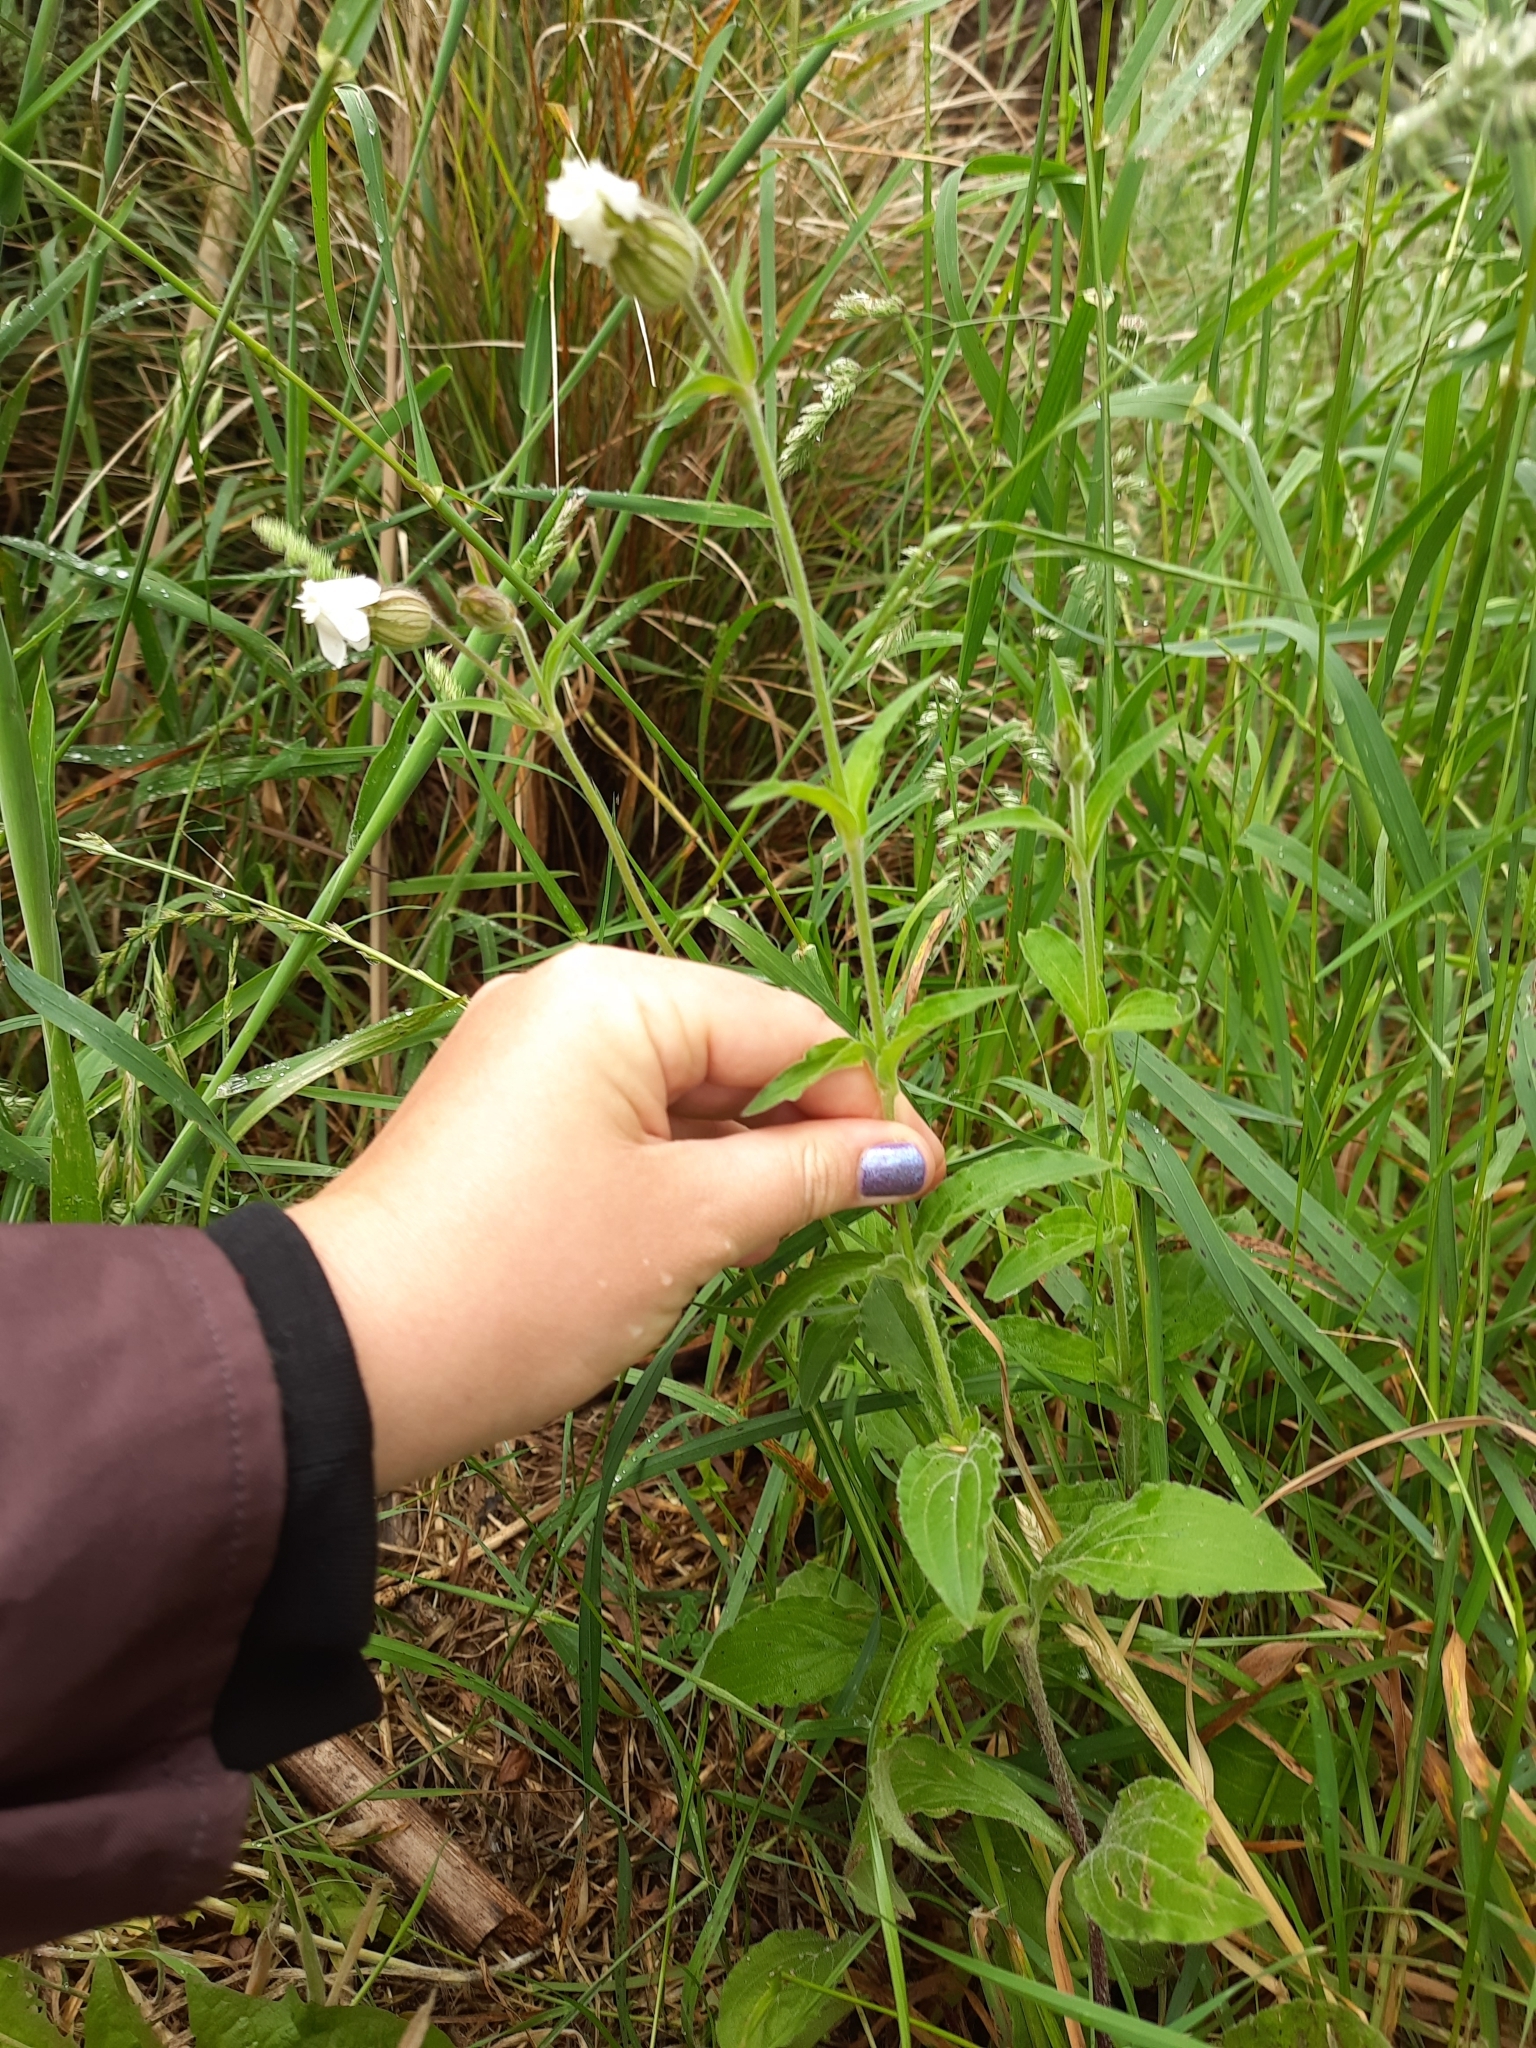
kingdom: Plantae
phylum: Tracheophyta
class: Magnoliopsida
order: Caryophyllales
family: Caryophyllaceae
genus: Silene
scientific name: Silene latifolia
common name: White campion
